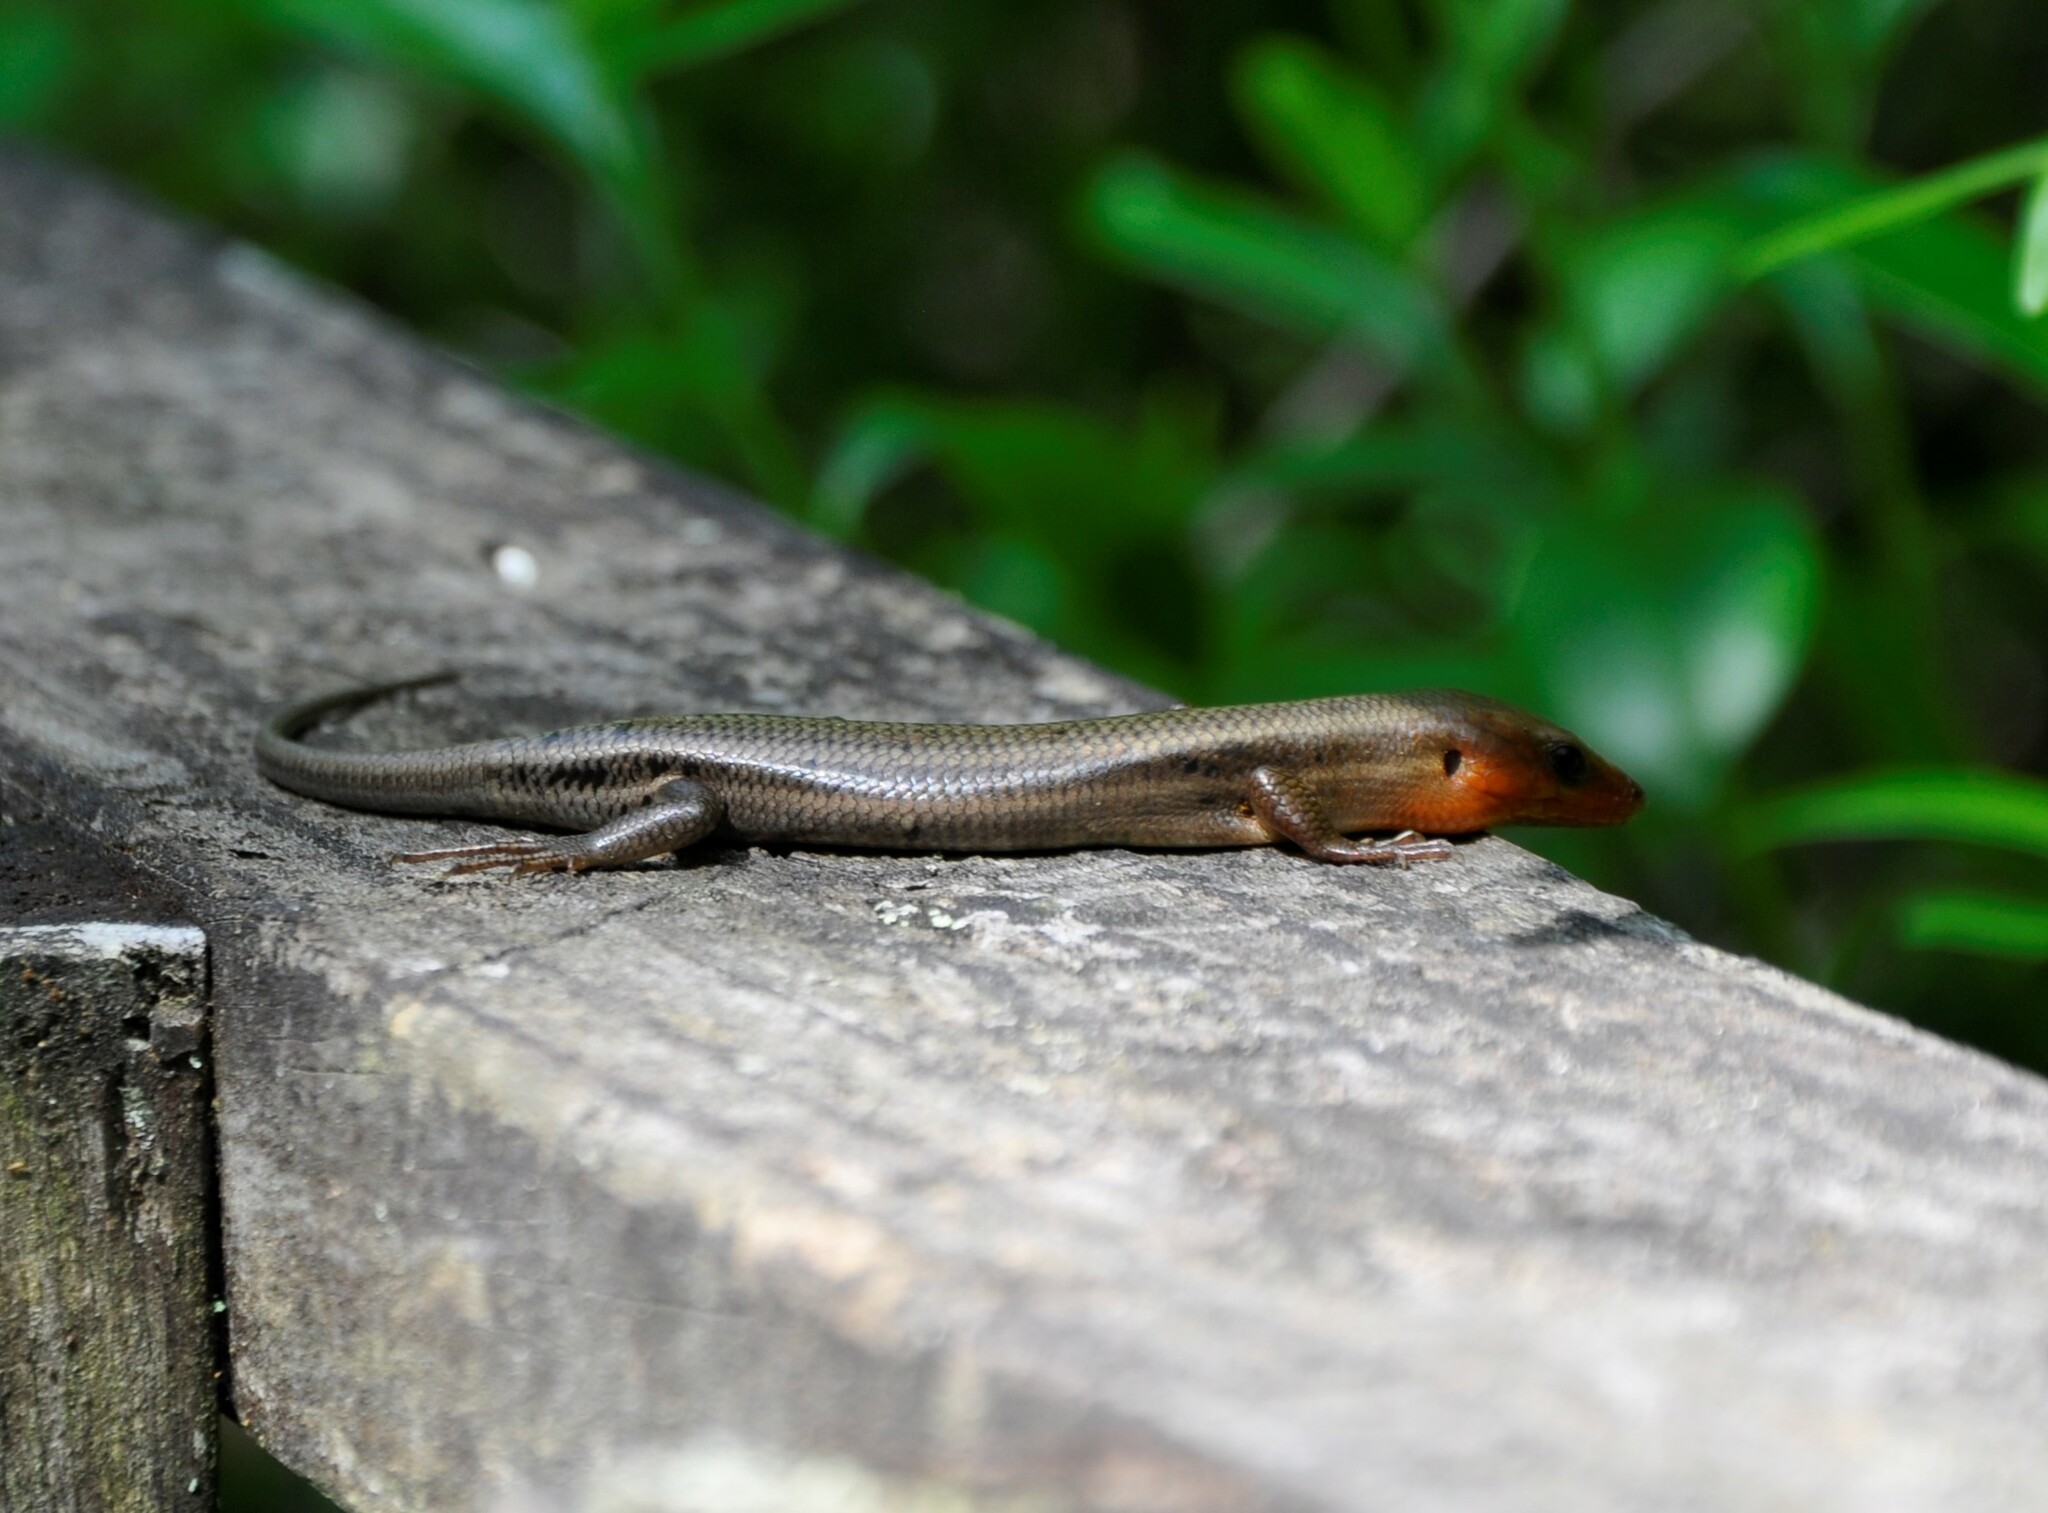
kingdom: Animalia
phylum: Chordata
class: Squamata
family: Scincidae
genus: Plestiodon
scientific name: Plestiodon fasciatus
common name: Five-lined skink
